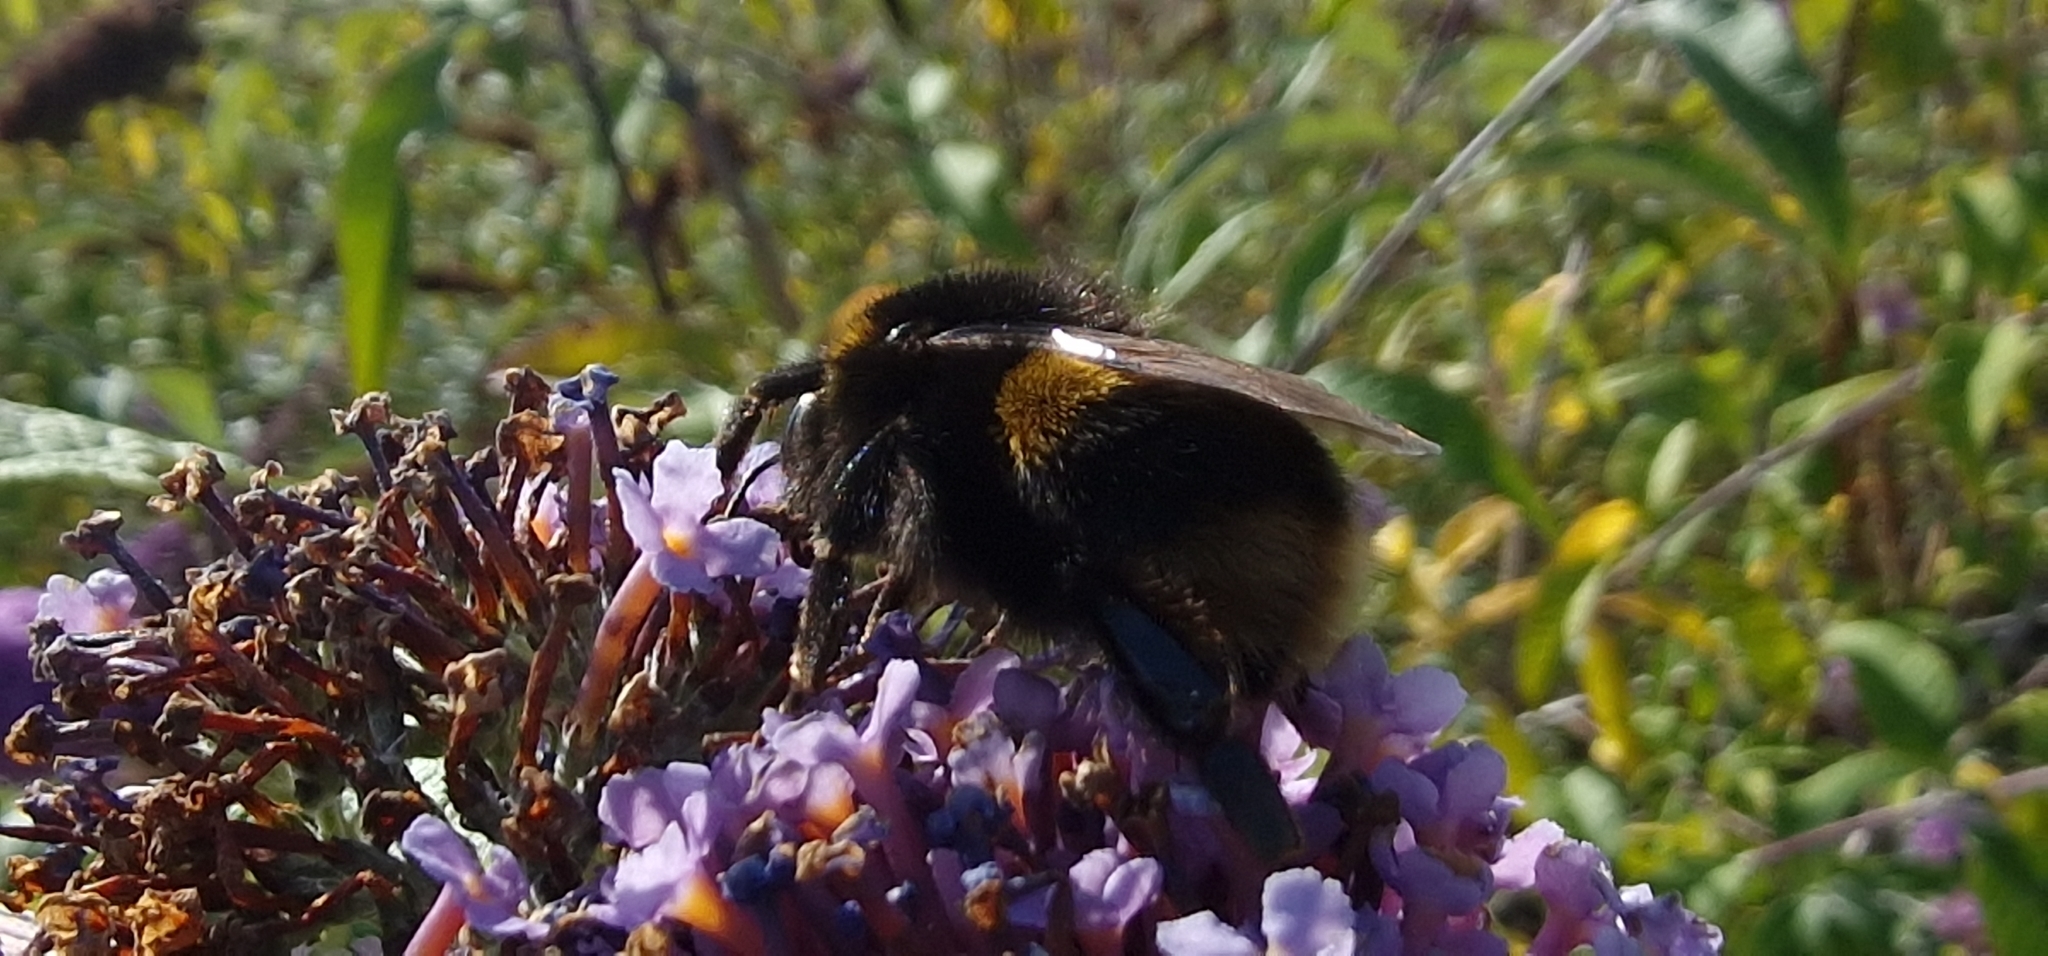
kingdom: Animalia
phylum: Arthropoda
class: Insecta
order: Hymenoptera
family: Apidae
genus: Bombus
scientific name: Bombus terrestris
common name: Buff-tailed bumblebee
